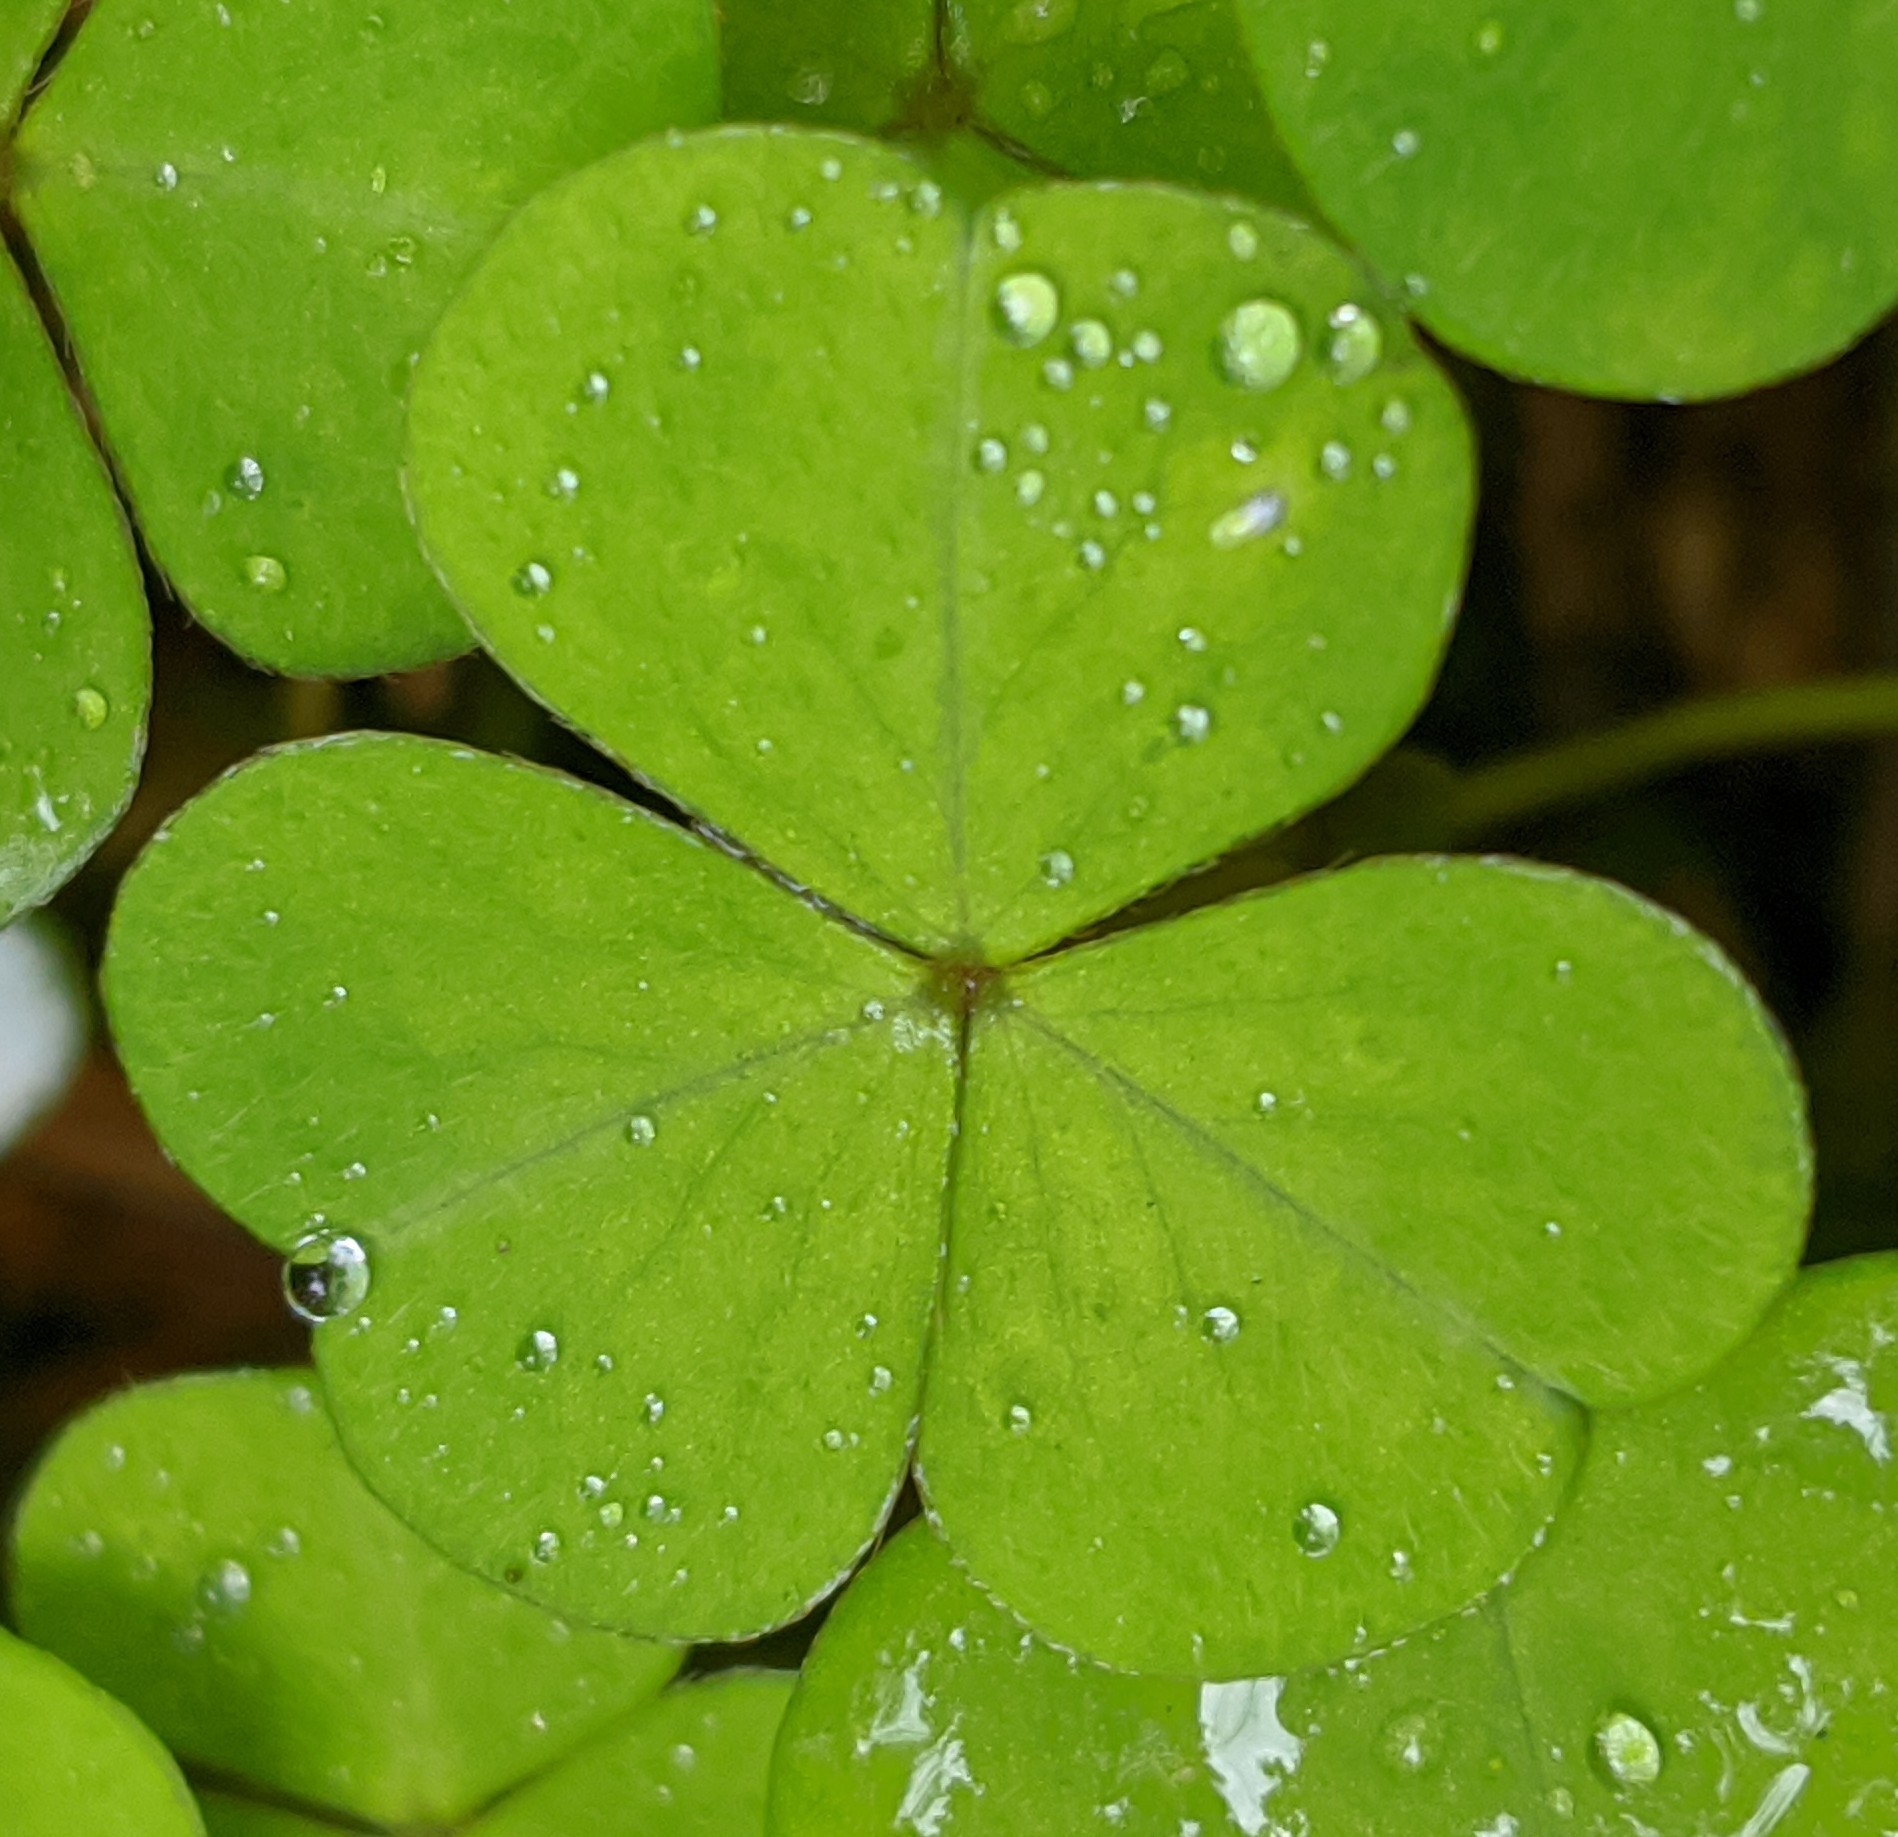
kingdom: Plantae
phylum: Tracheophyta
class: Magnoliopsida
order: Oxalidales
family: Oxalidaceae
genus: Oxalis
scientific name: Oxalis acetosella
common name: Wood-sorrel
